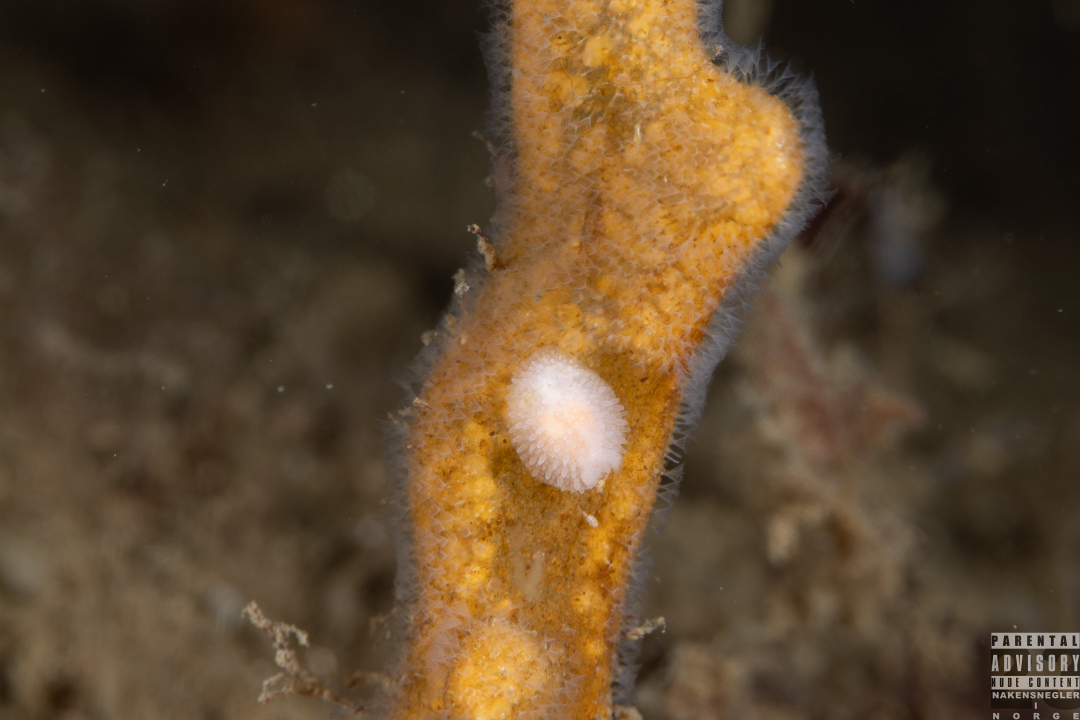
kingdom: Animalia
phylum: Mollusca
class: Gastropoda
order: Nudibranchia
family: Onchidorididae
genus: Acanthodoris
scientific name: Acanthodoris pilosa
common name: Hairy spiny doris
